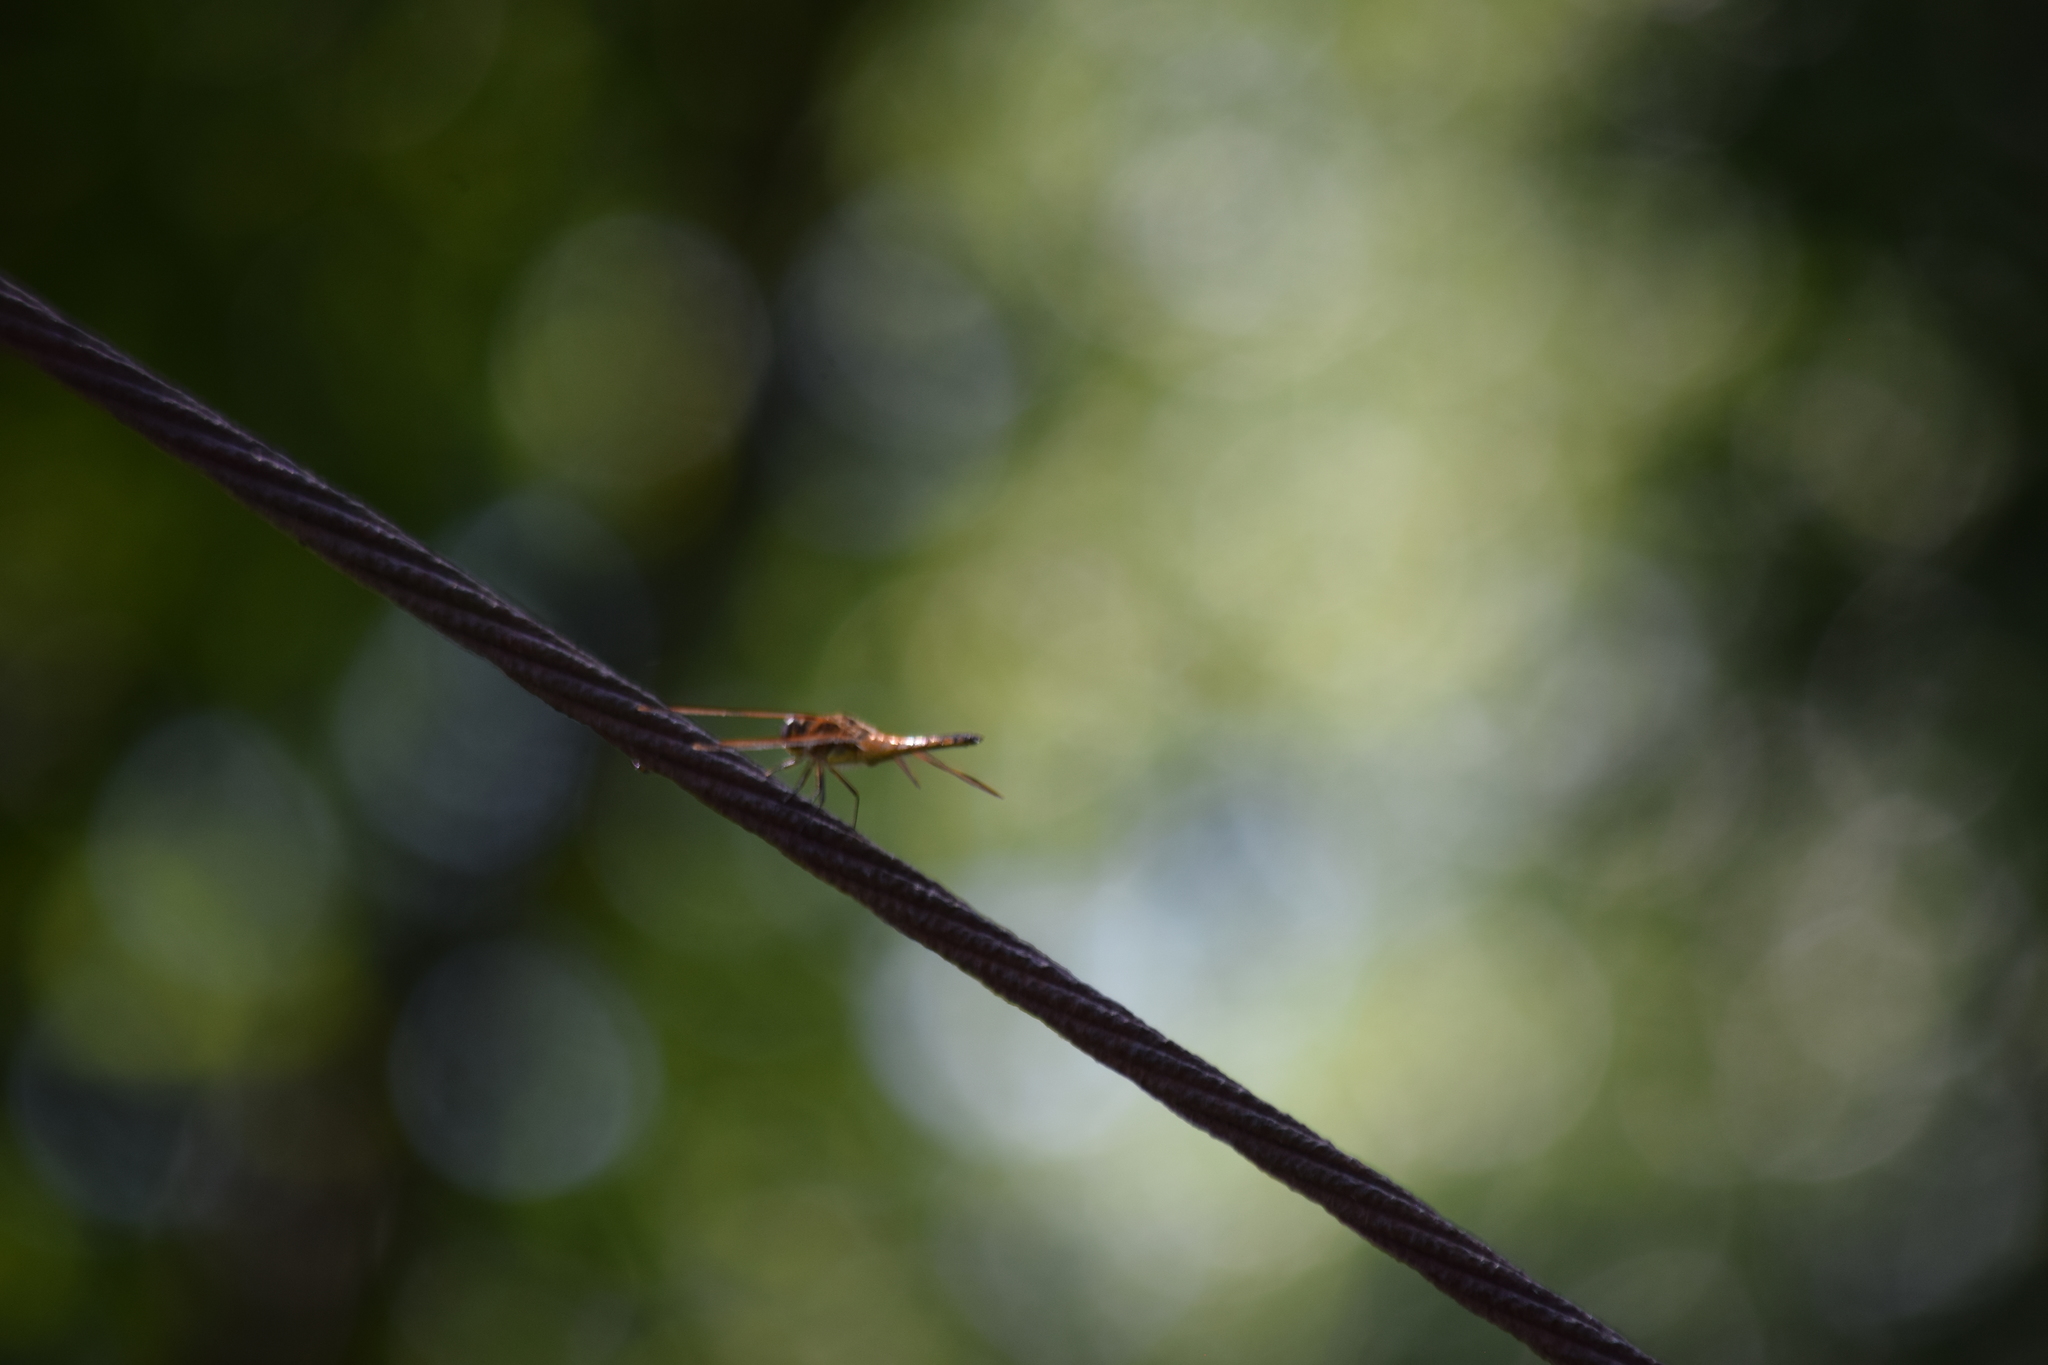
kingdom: Animalia
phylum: Arthropoda
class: Insecta
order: Odonata
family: Libellulidae
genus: Libellula
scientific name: Libellula semifasciata
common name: Painted skimmer
